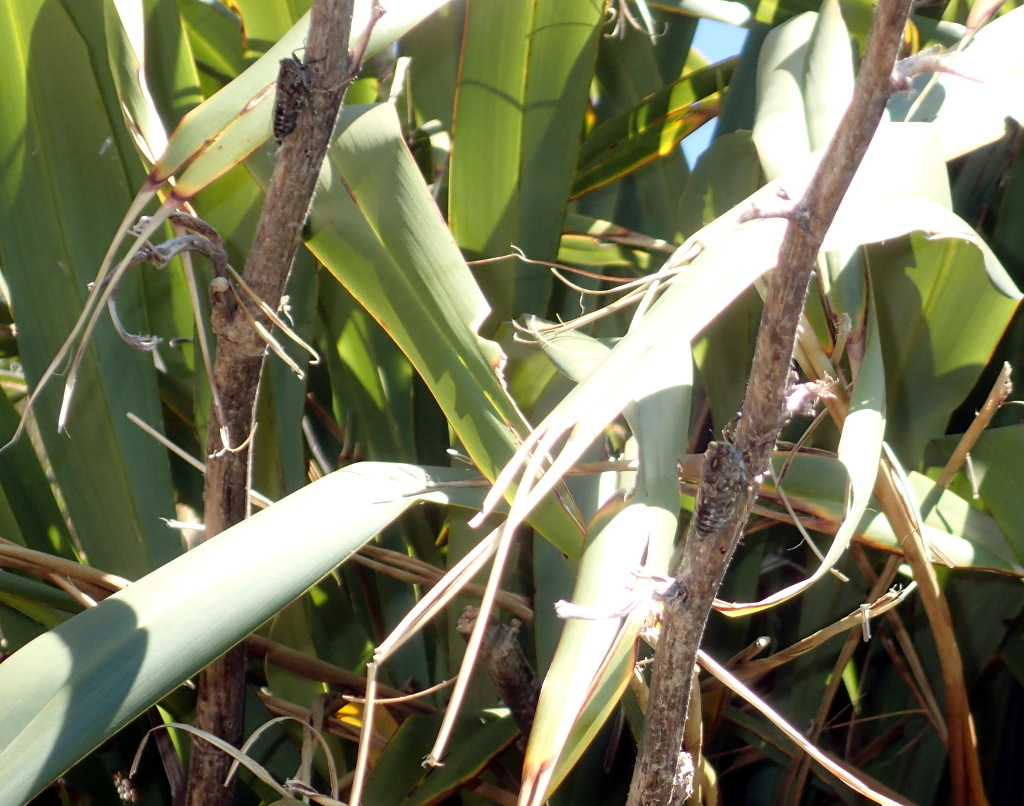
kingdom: Animalia
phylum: Arthropoda
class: Insecta
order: Hemiptera
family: Cicadidae
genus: Amphipsalta
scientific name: Amphipsalta zelandica
